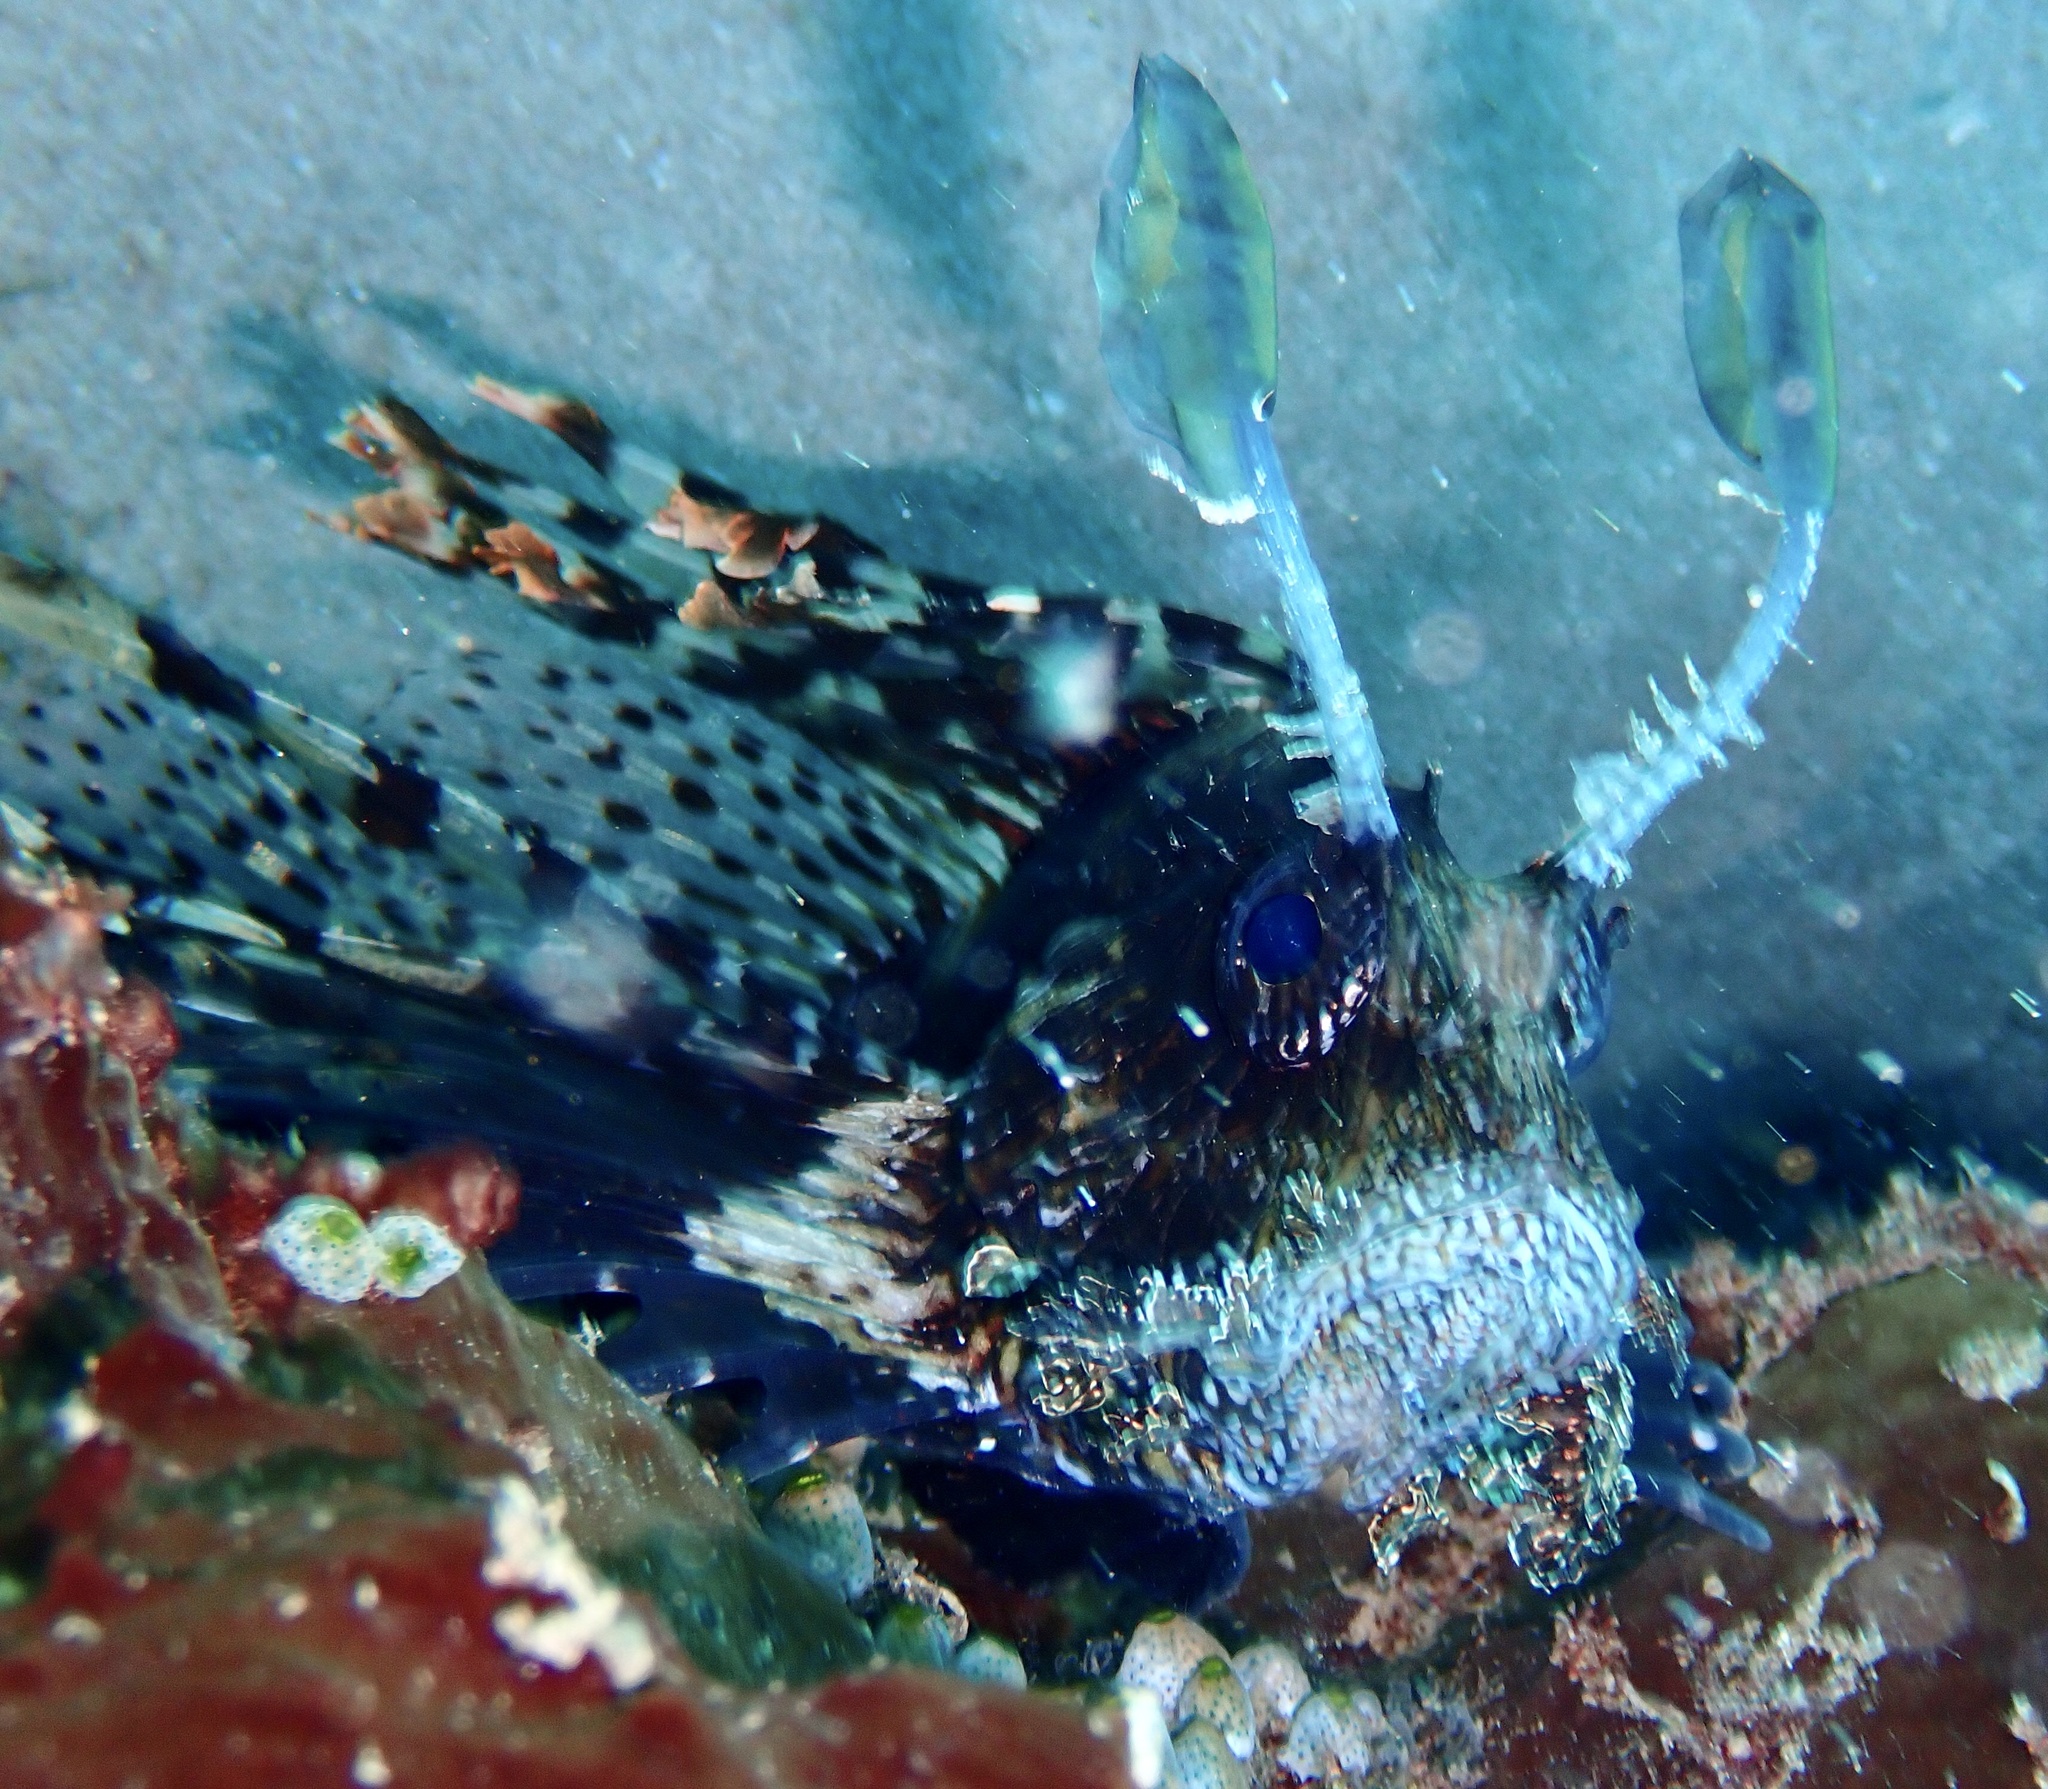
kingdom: Animalia
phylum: Chordata
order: Scorpaeniformes
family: Scorpaenidae
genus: Pterois
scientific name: Pterois volitans
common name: Lionfish
